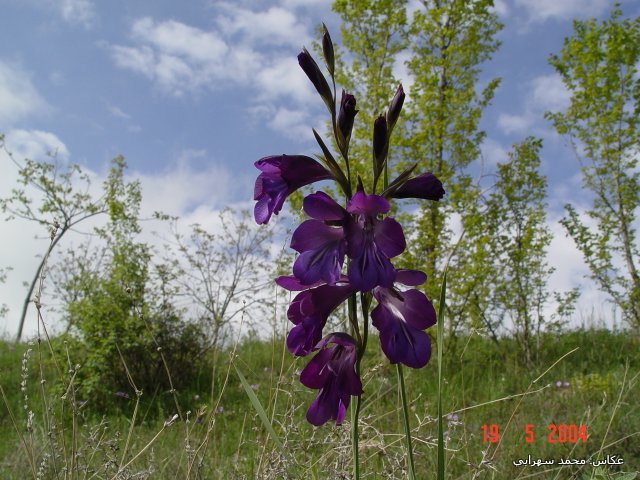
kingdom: Plantae
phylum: Tracheophyta
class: Liliopsida
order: Asparagales
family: Iridaceae
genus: Gladiolus
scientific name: Gladiolus atroviolaceus
